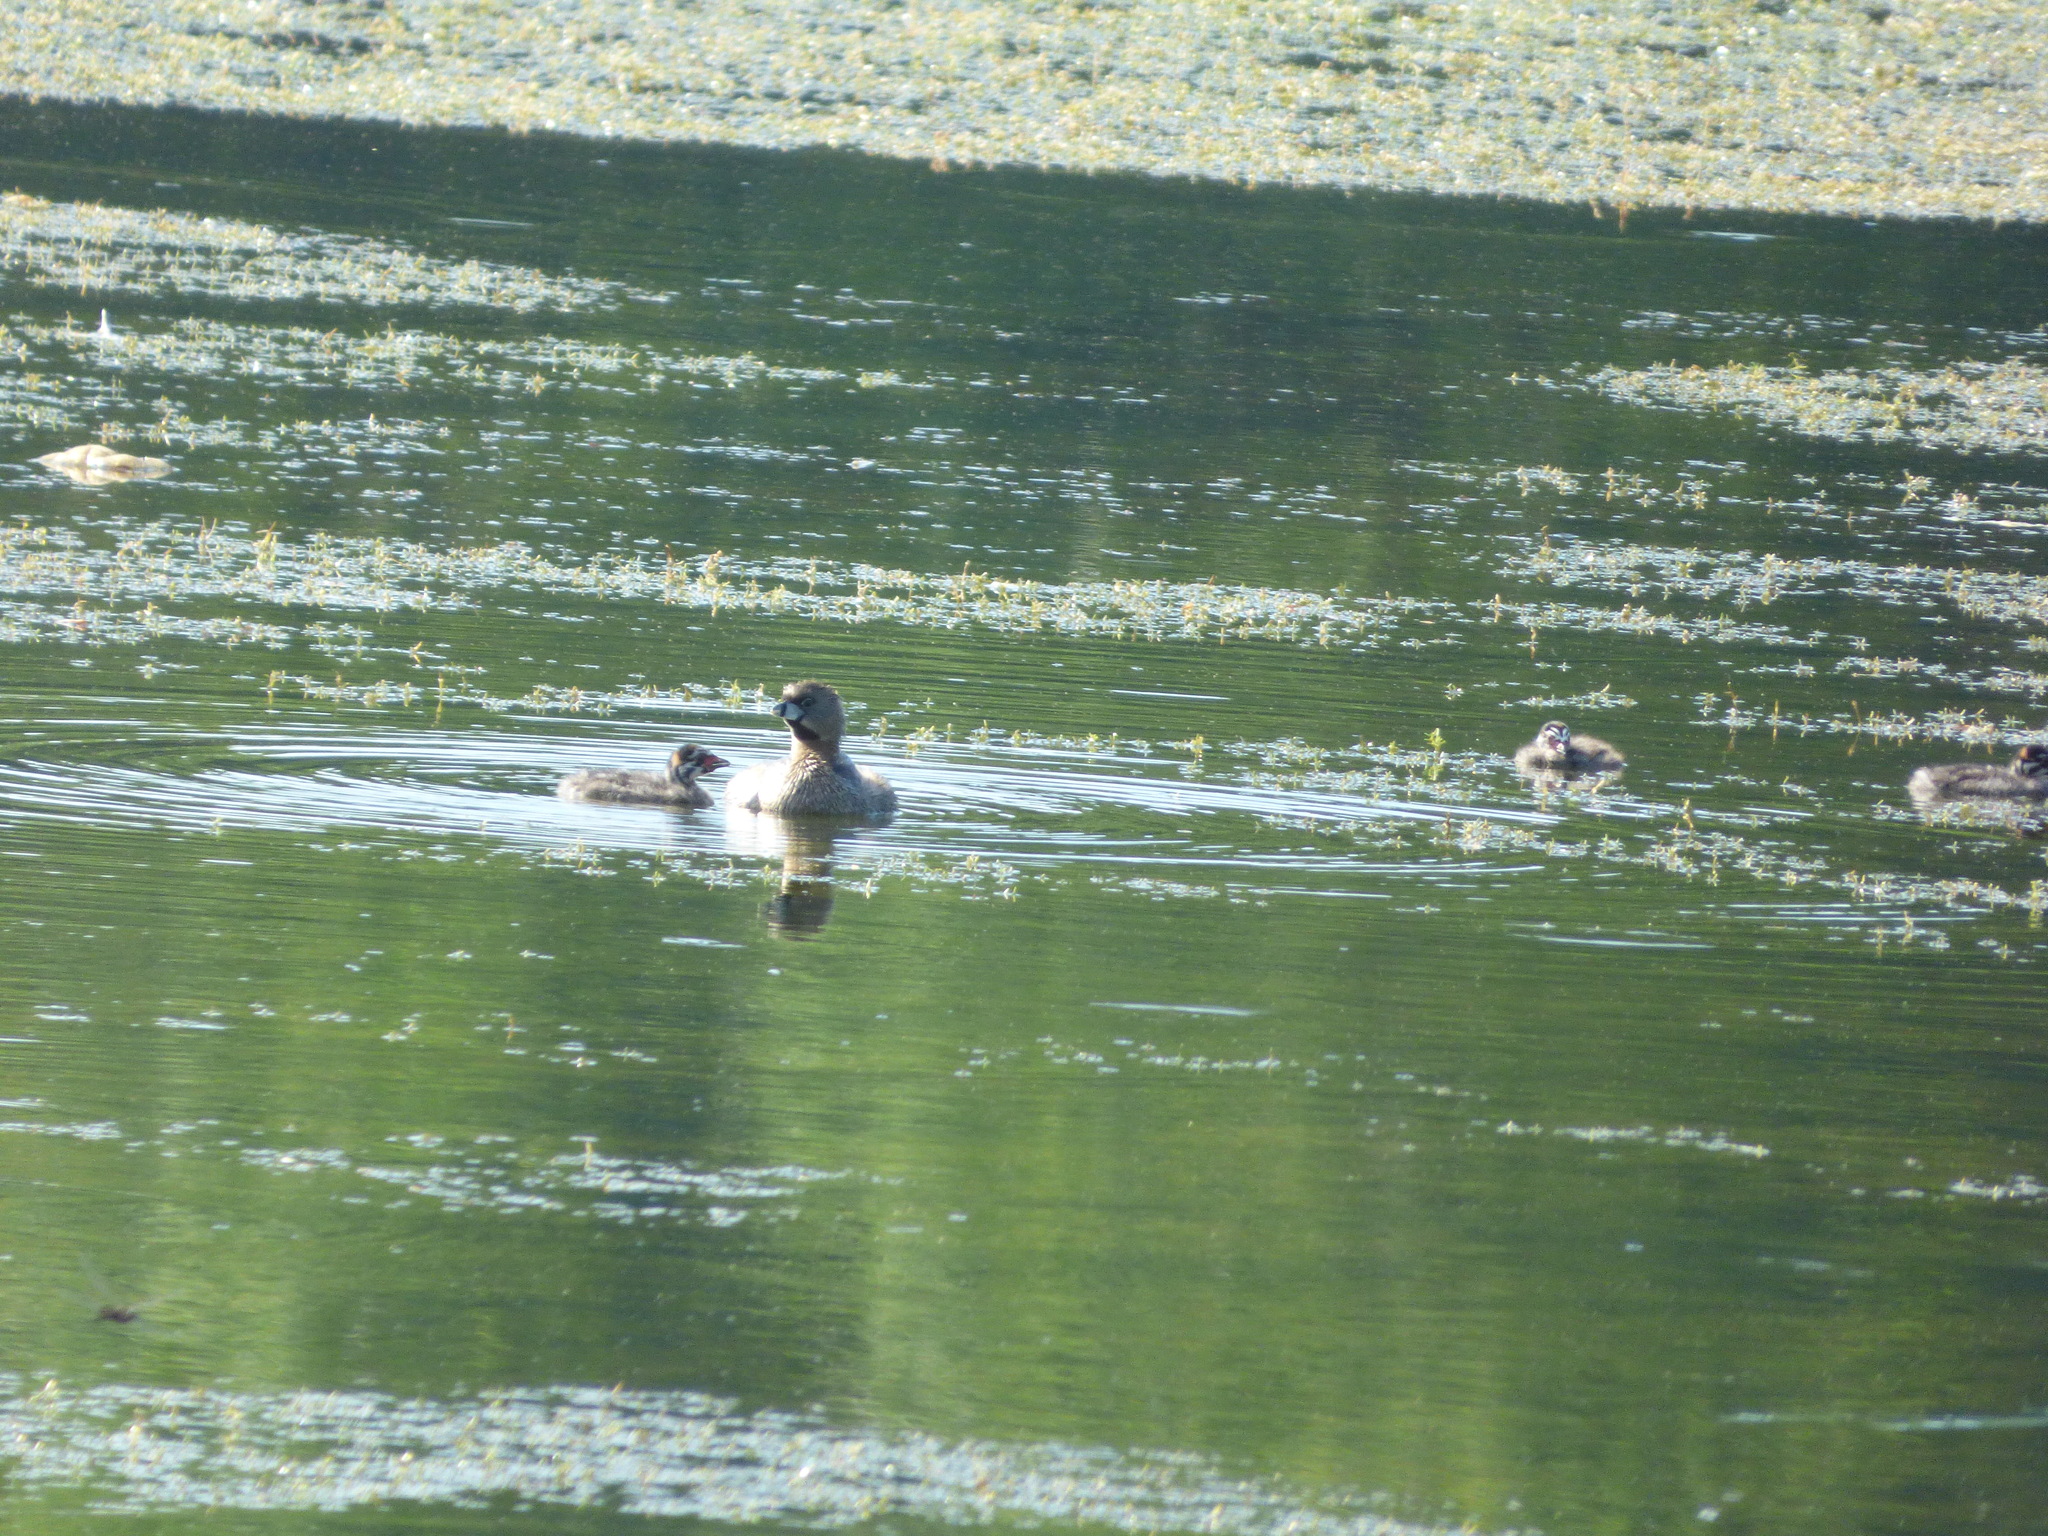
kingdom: Animalia
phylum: Chordata
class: Aves
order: Podicipediformes
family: Podicipedidae
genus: Podilymbus
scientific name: Podilymbus podiceps
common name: Pied-billed grebe
